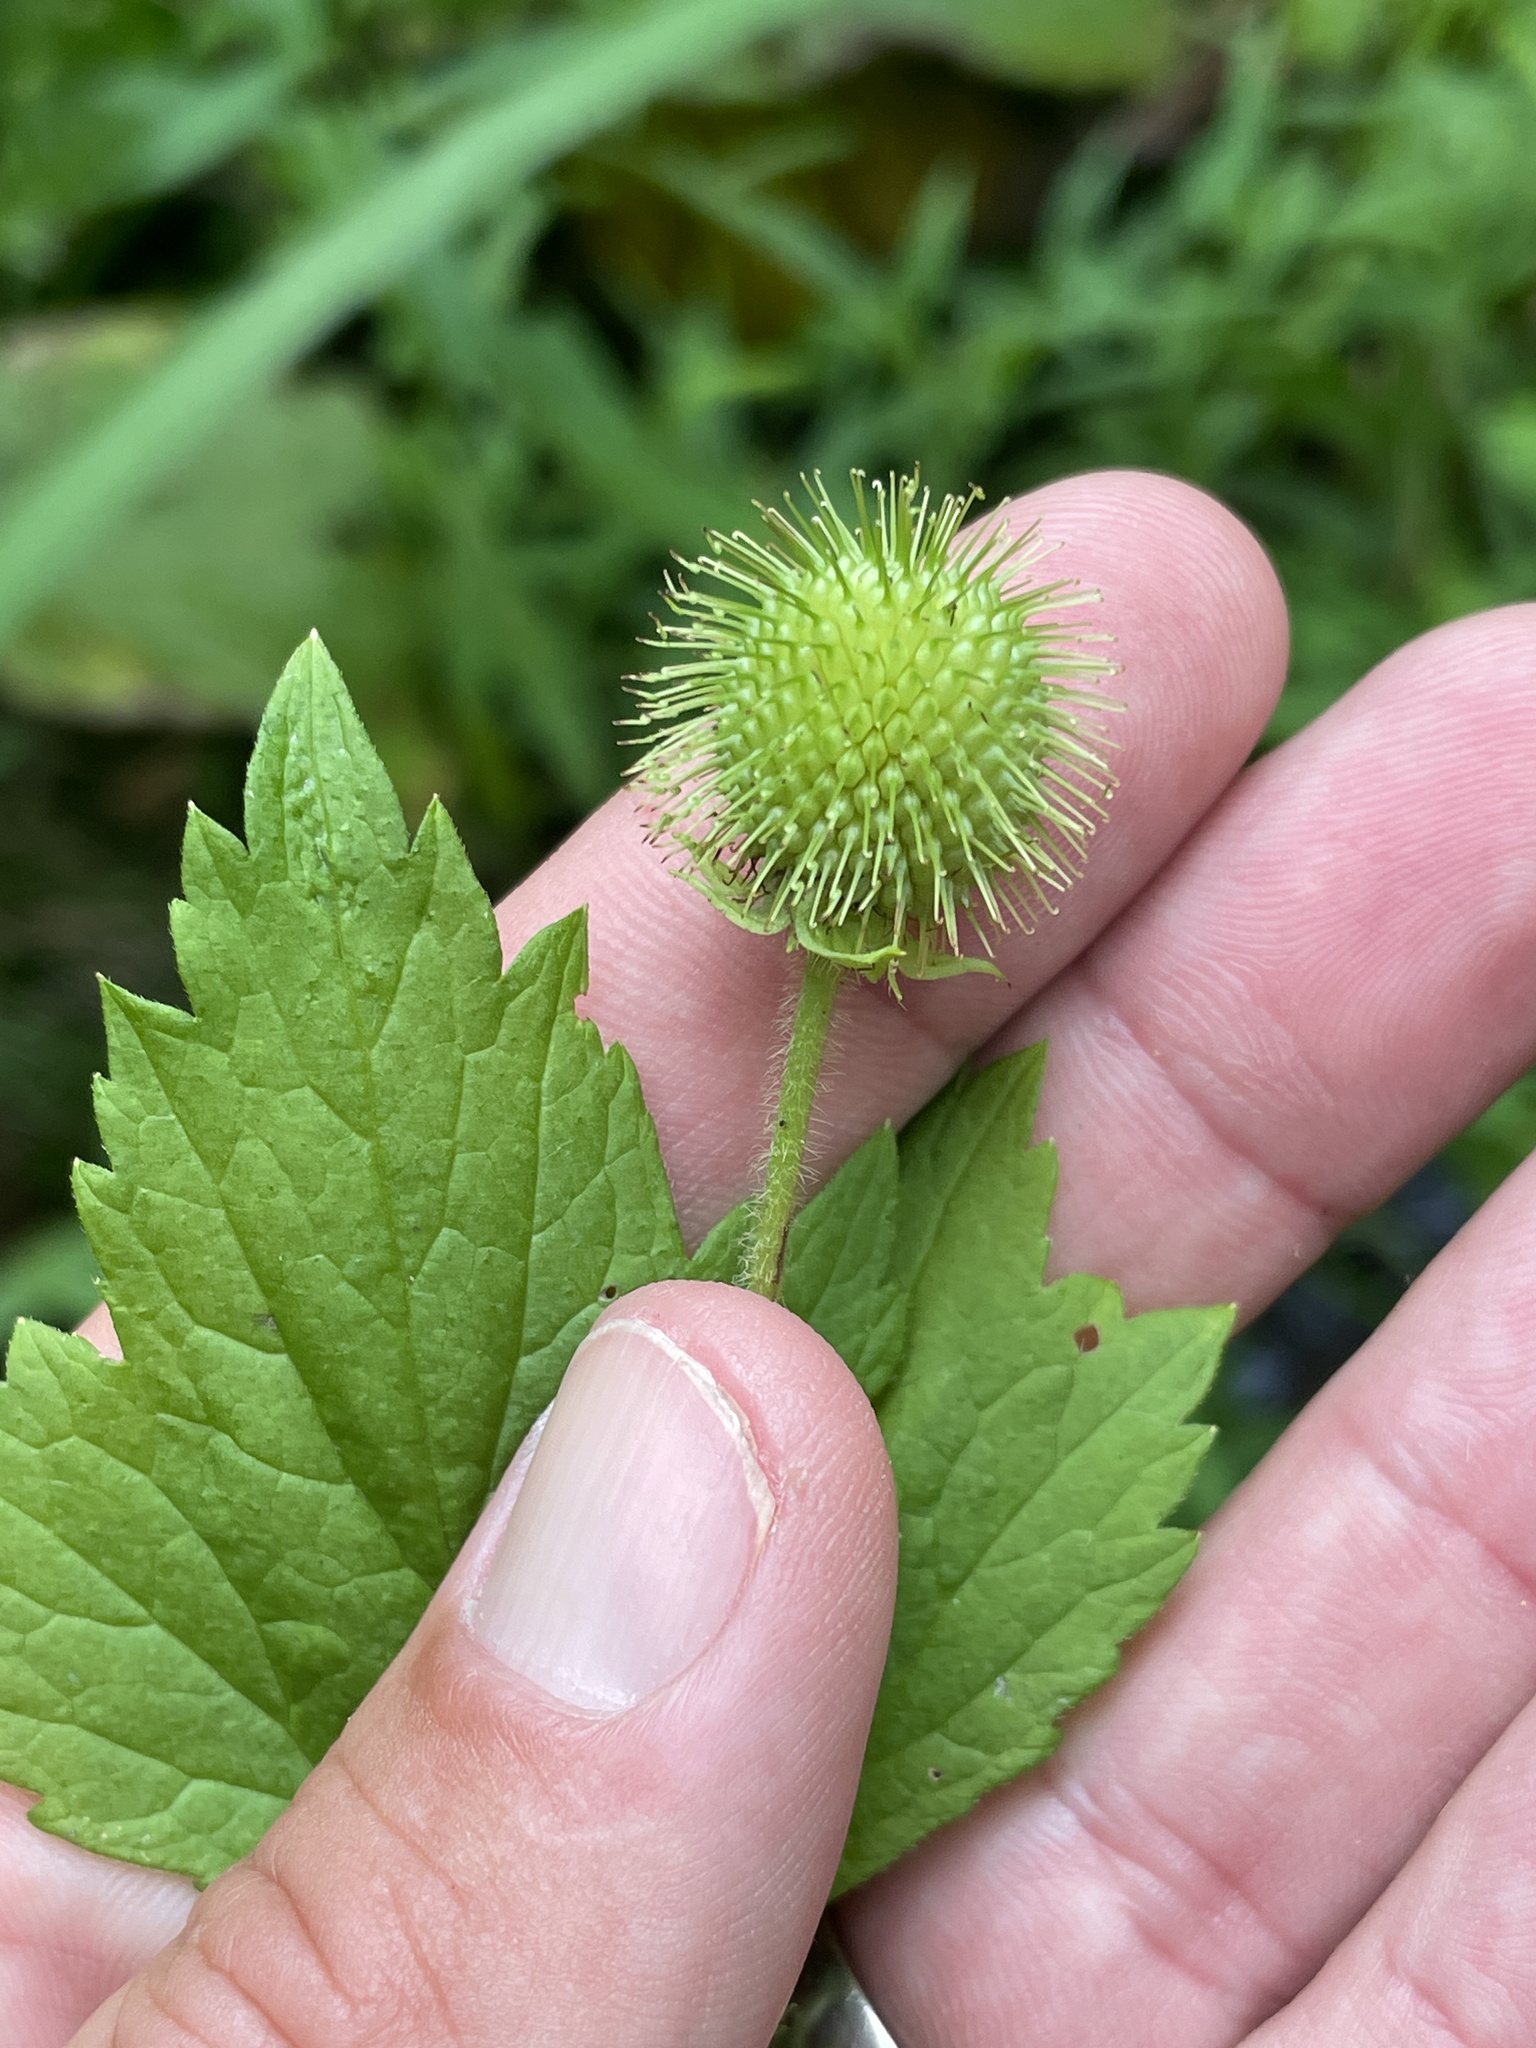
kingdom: Plantae
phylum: Tracheophyta
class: Magnoliopsida
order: Rosales
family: Rosaceae
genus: Geum
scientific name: Geum laciniatum
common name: Rough avens
